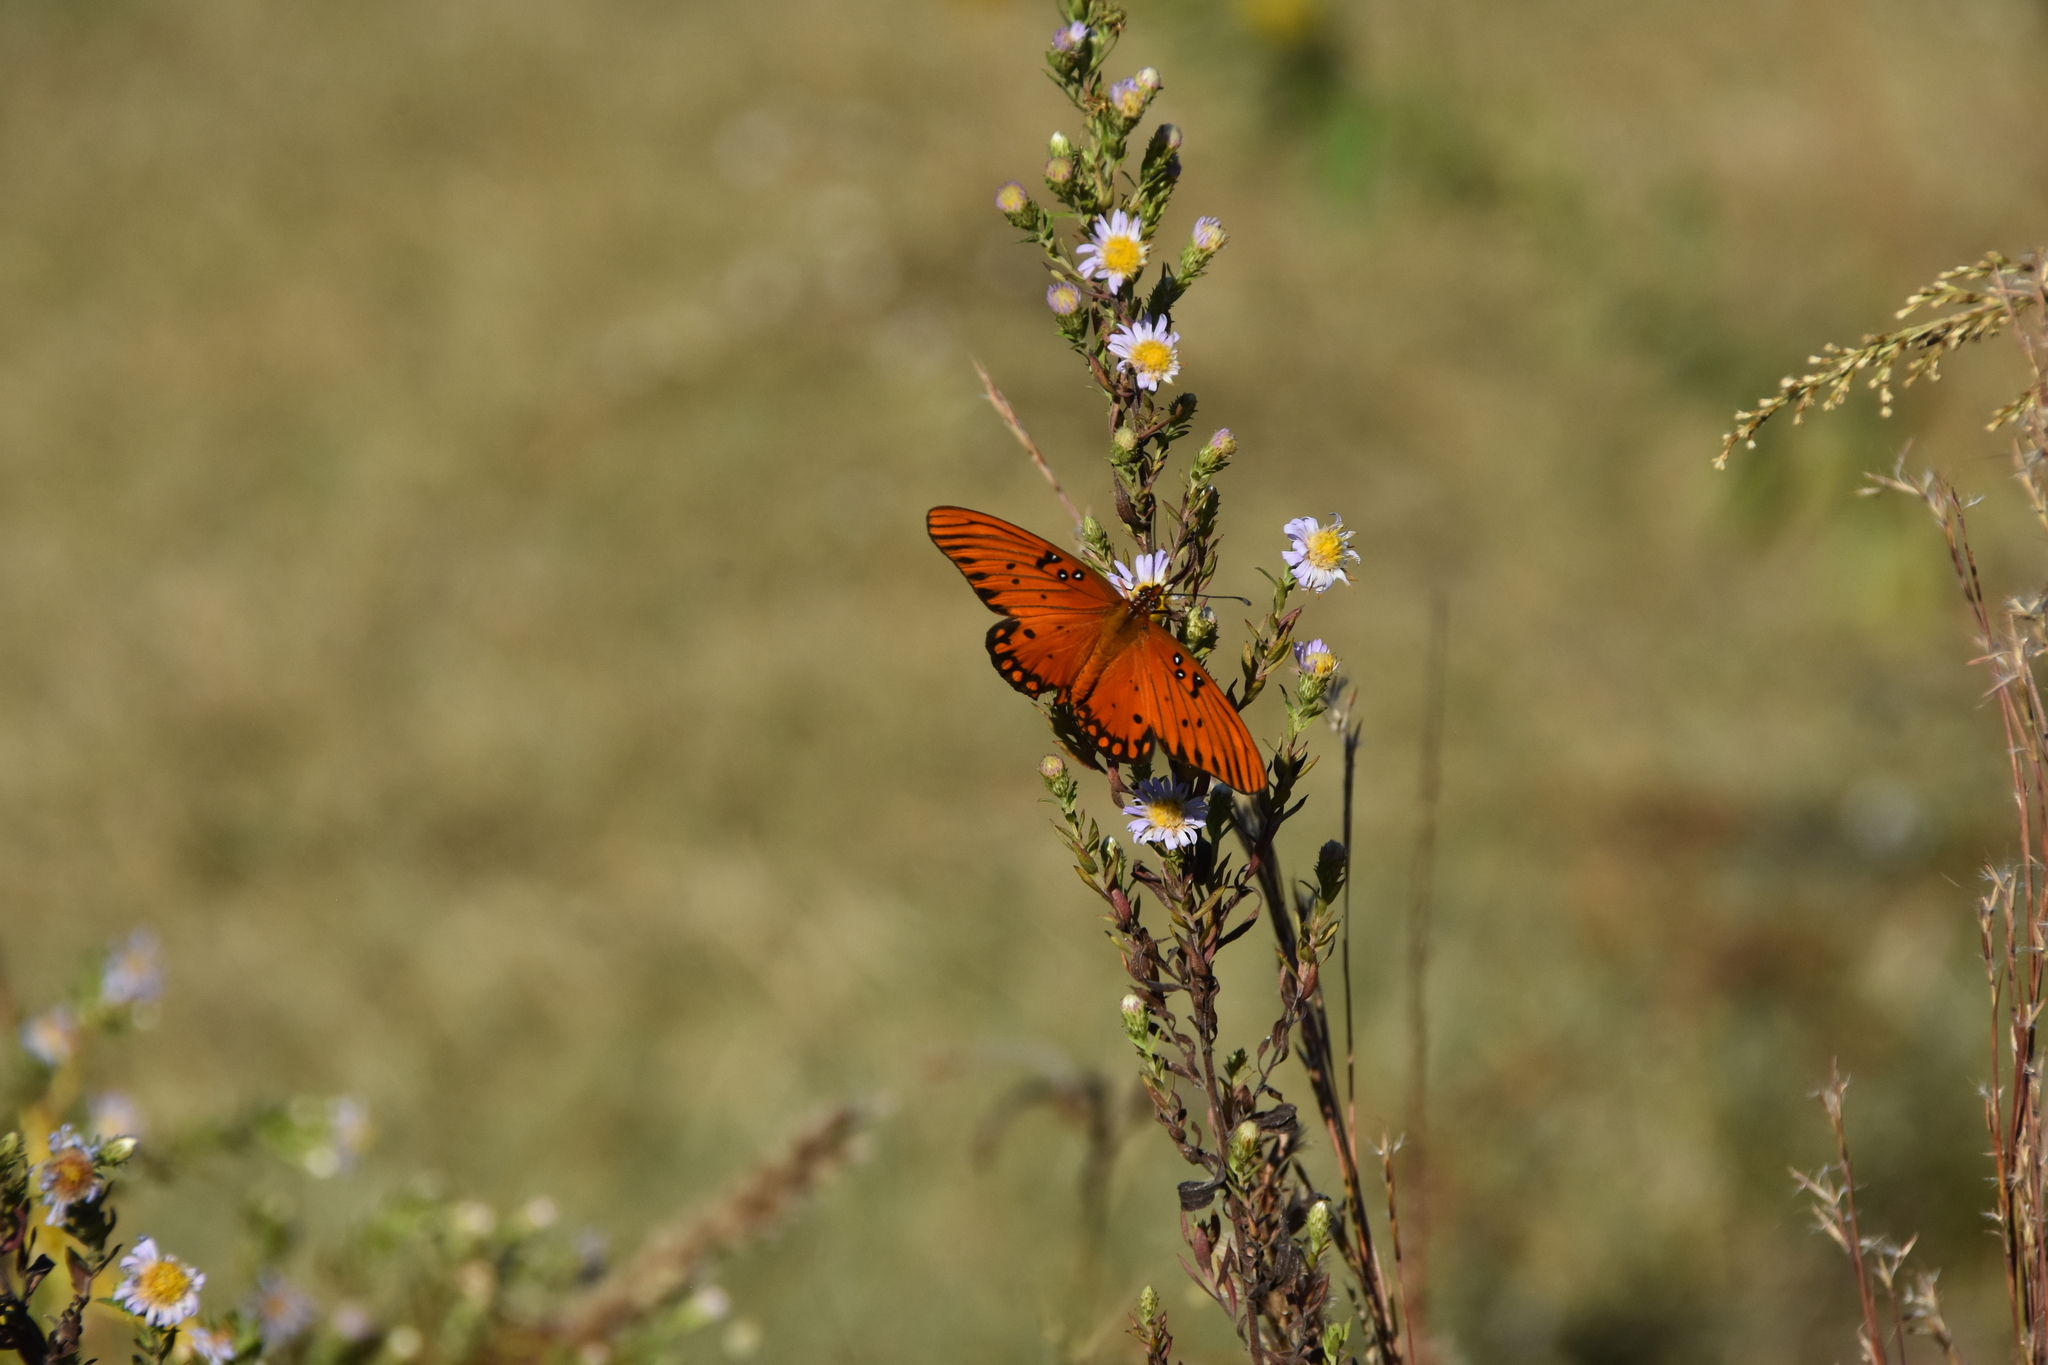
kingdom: Animalia
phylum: Arthropoda
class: Insecta
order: Lepidoptera
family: Nymphalidae
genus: Dione
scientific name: Dione vanillae
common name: Gulf fritillary
